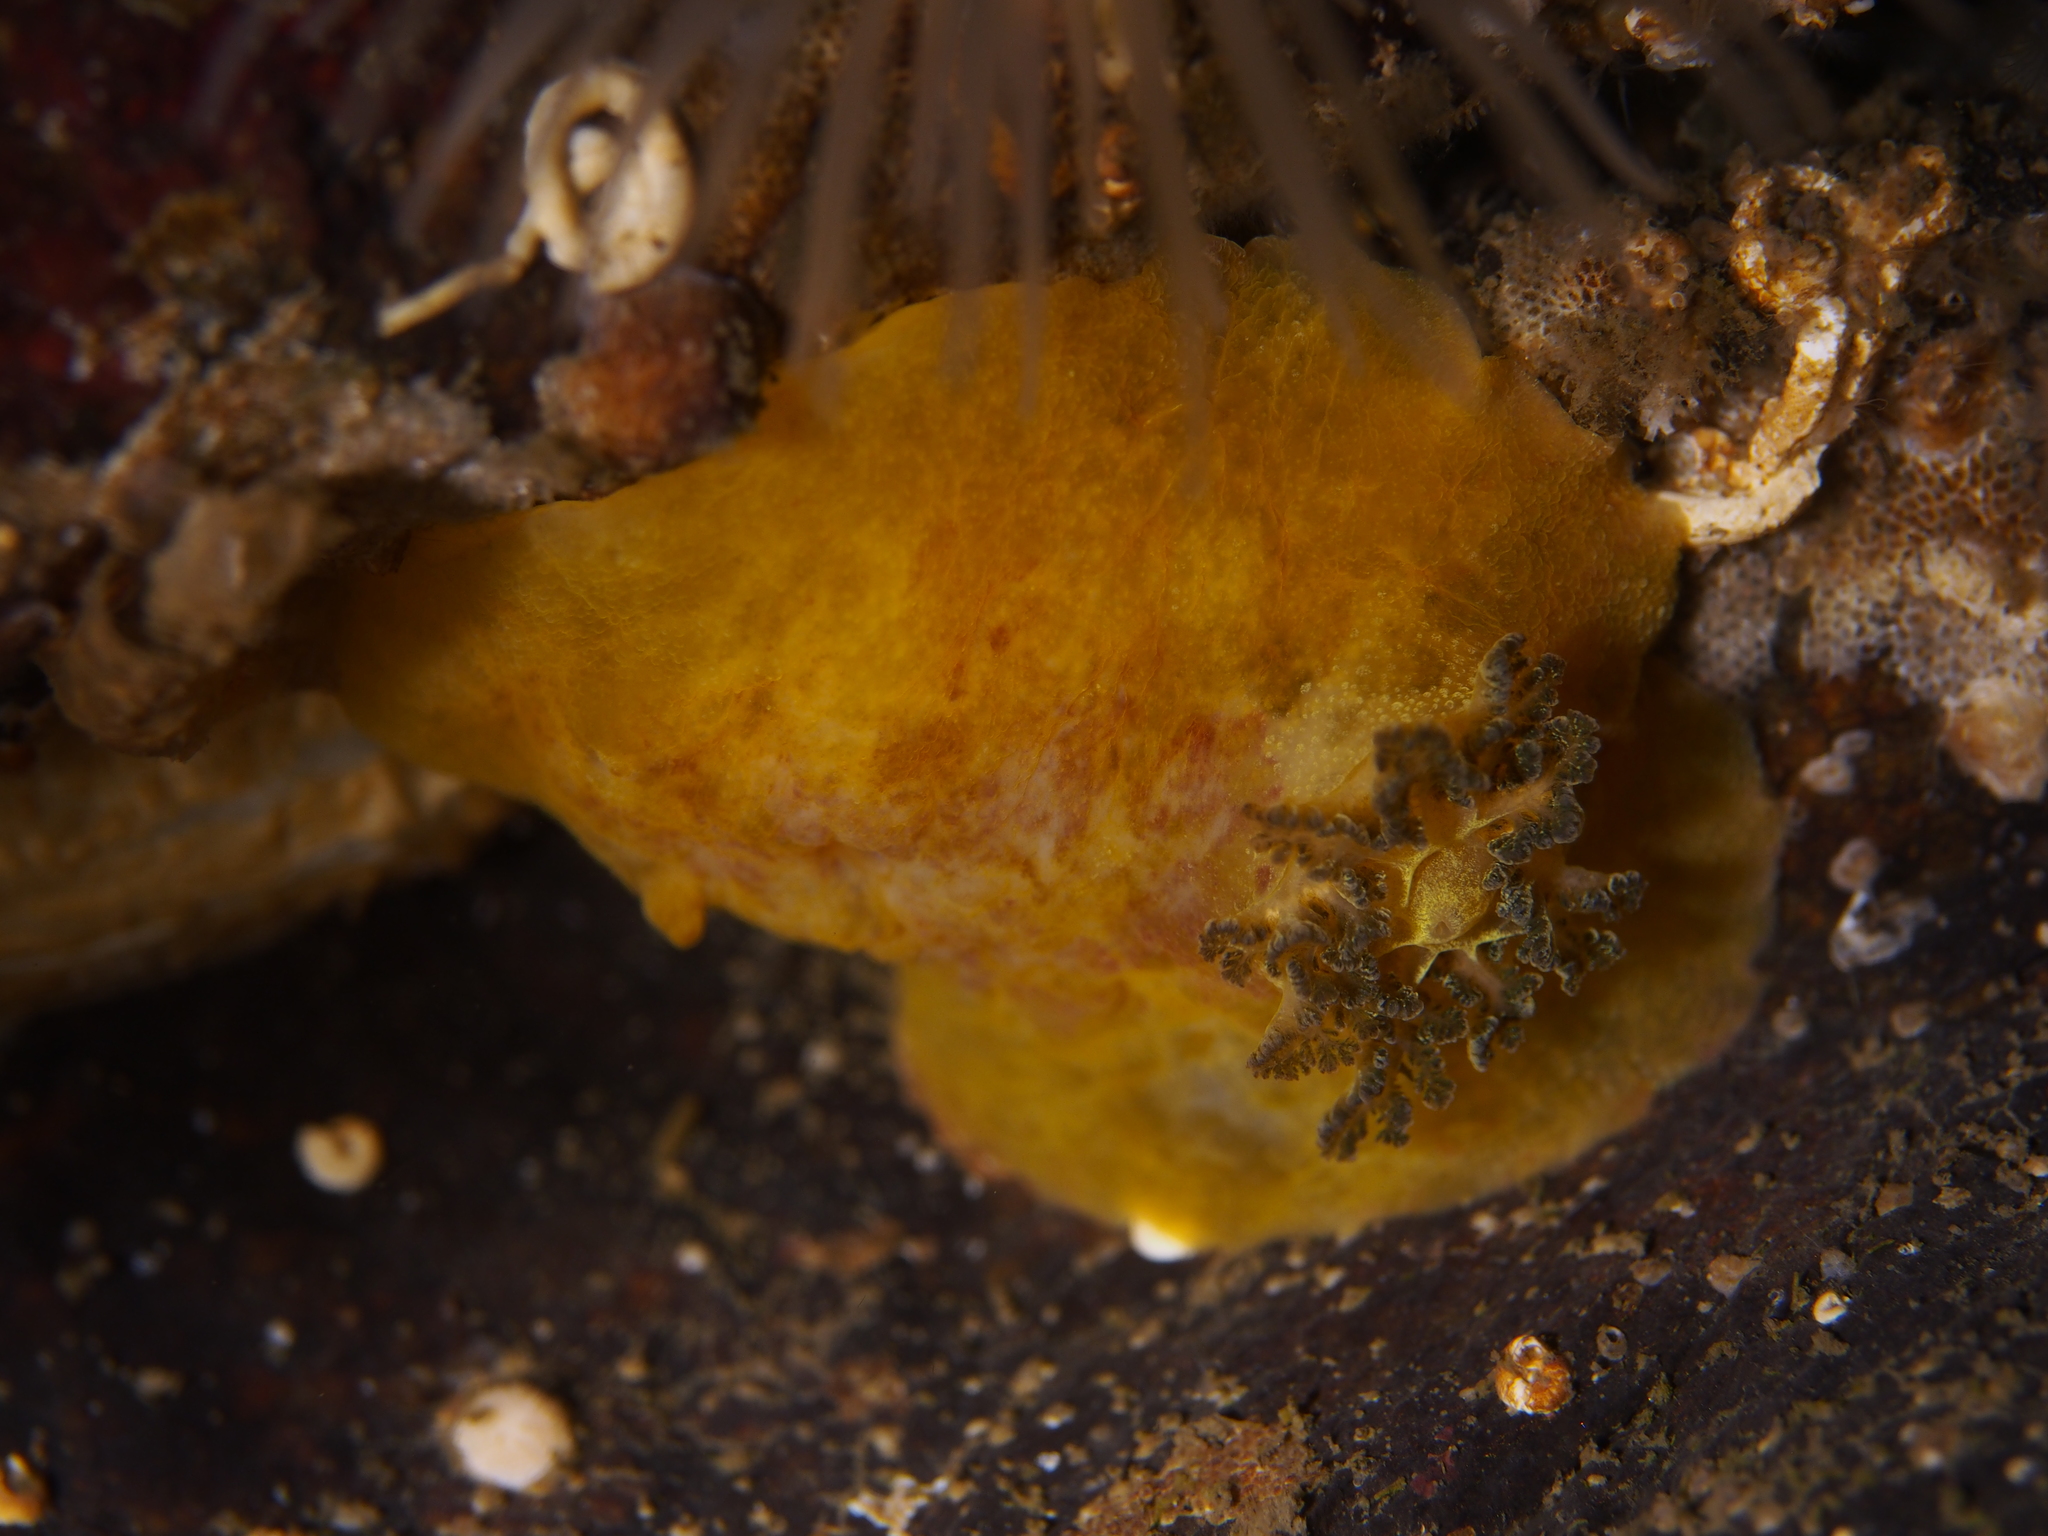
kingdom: Animalia
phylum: Mollusca
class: Gastropoda
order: Nudibranchia
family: Dorididae
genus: Doris
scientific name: Doris pseudoargus
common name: Sea lemon
